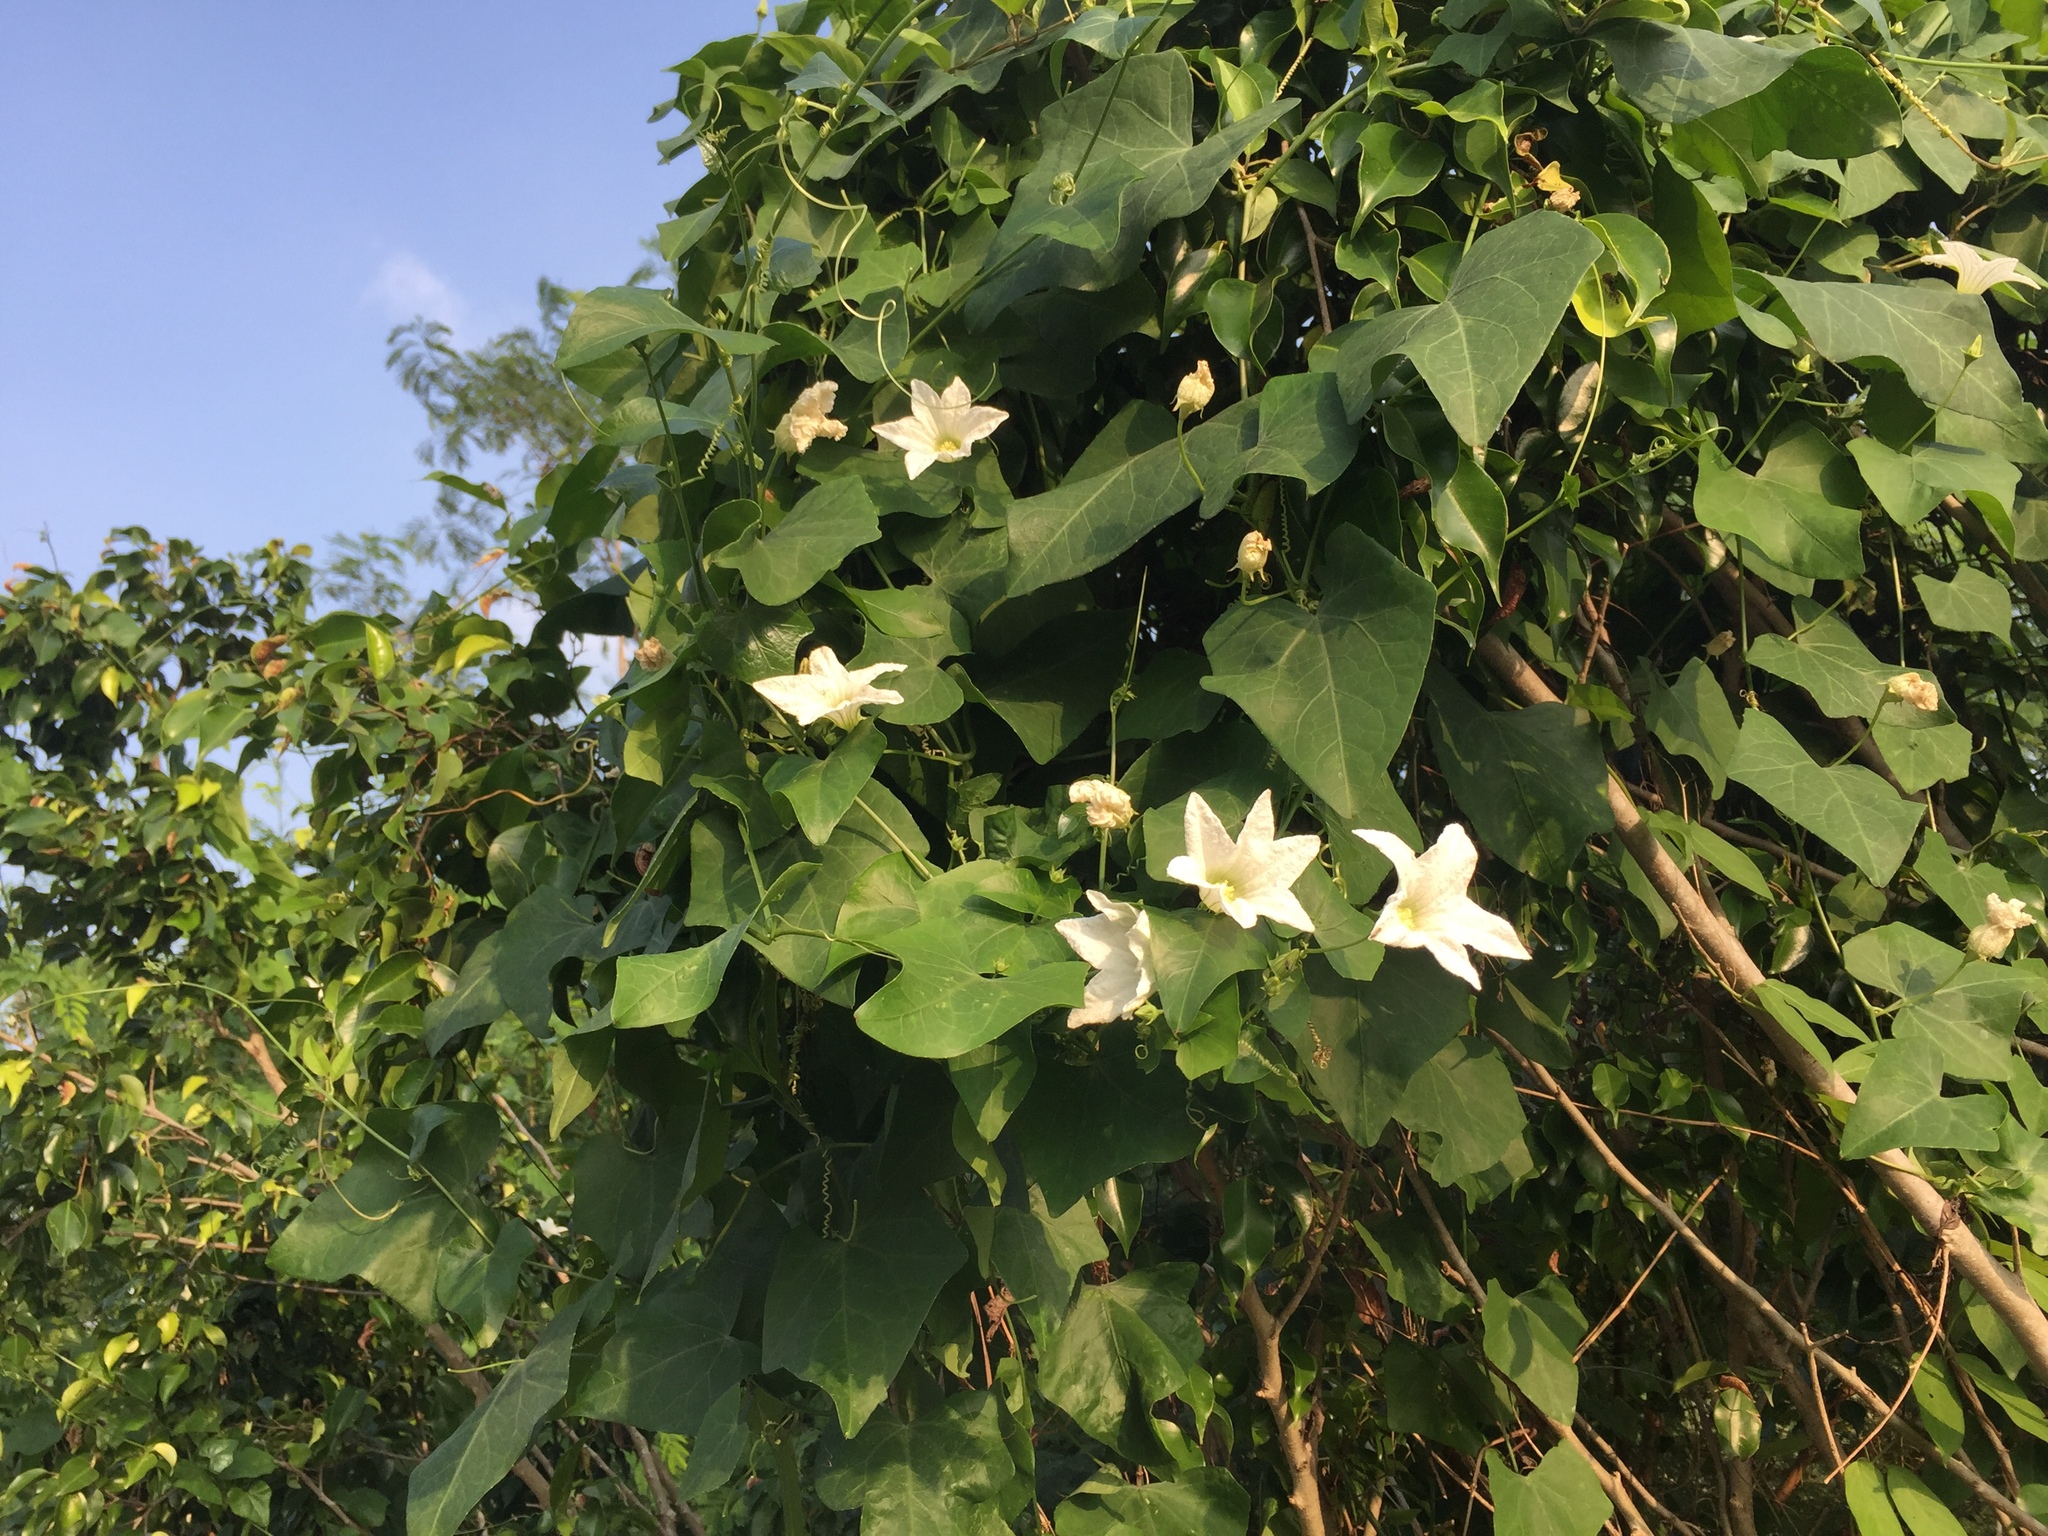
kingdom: Plantae
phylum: Tracheophyta
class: Magnoliopsida
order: Cucurbitales
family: Cucurbitaceae
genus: Coccinia
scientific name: Coccinia grandis
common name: Ivy gourd
